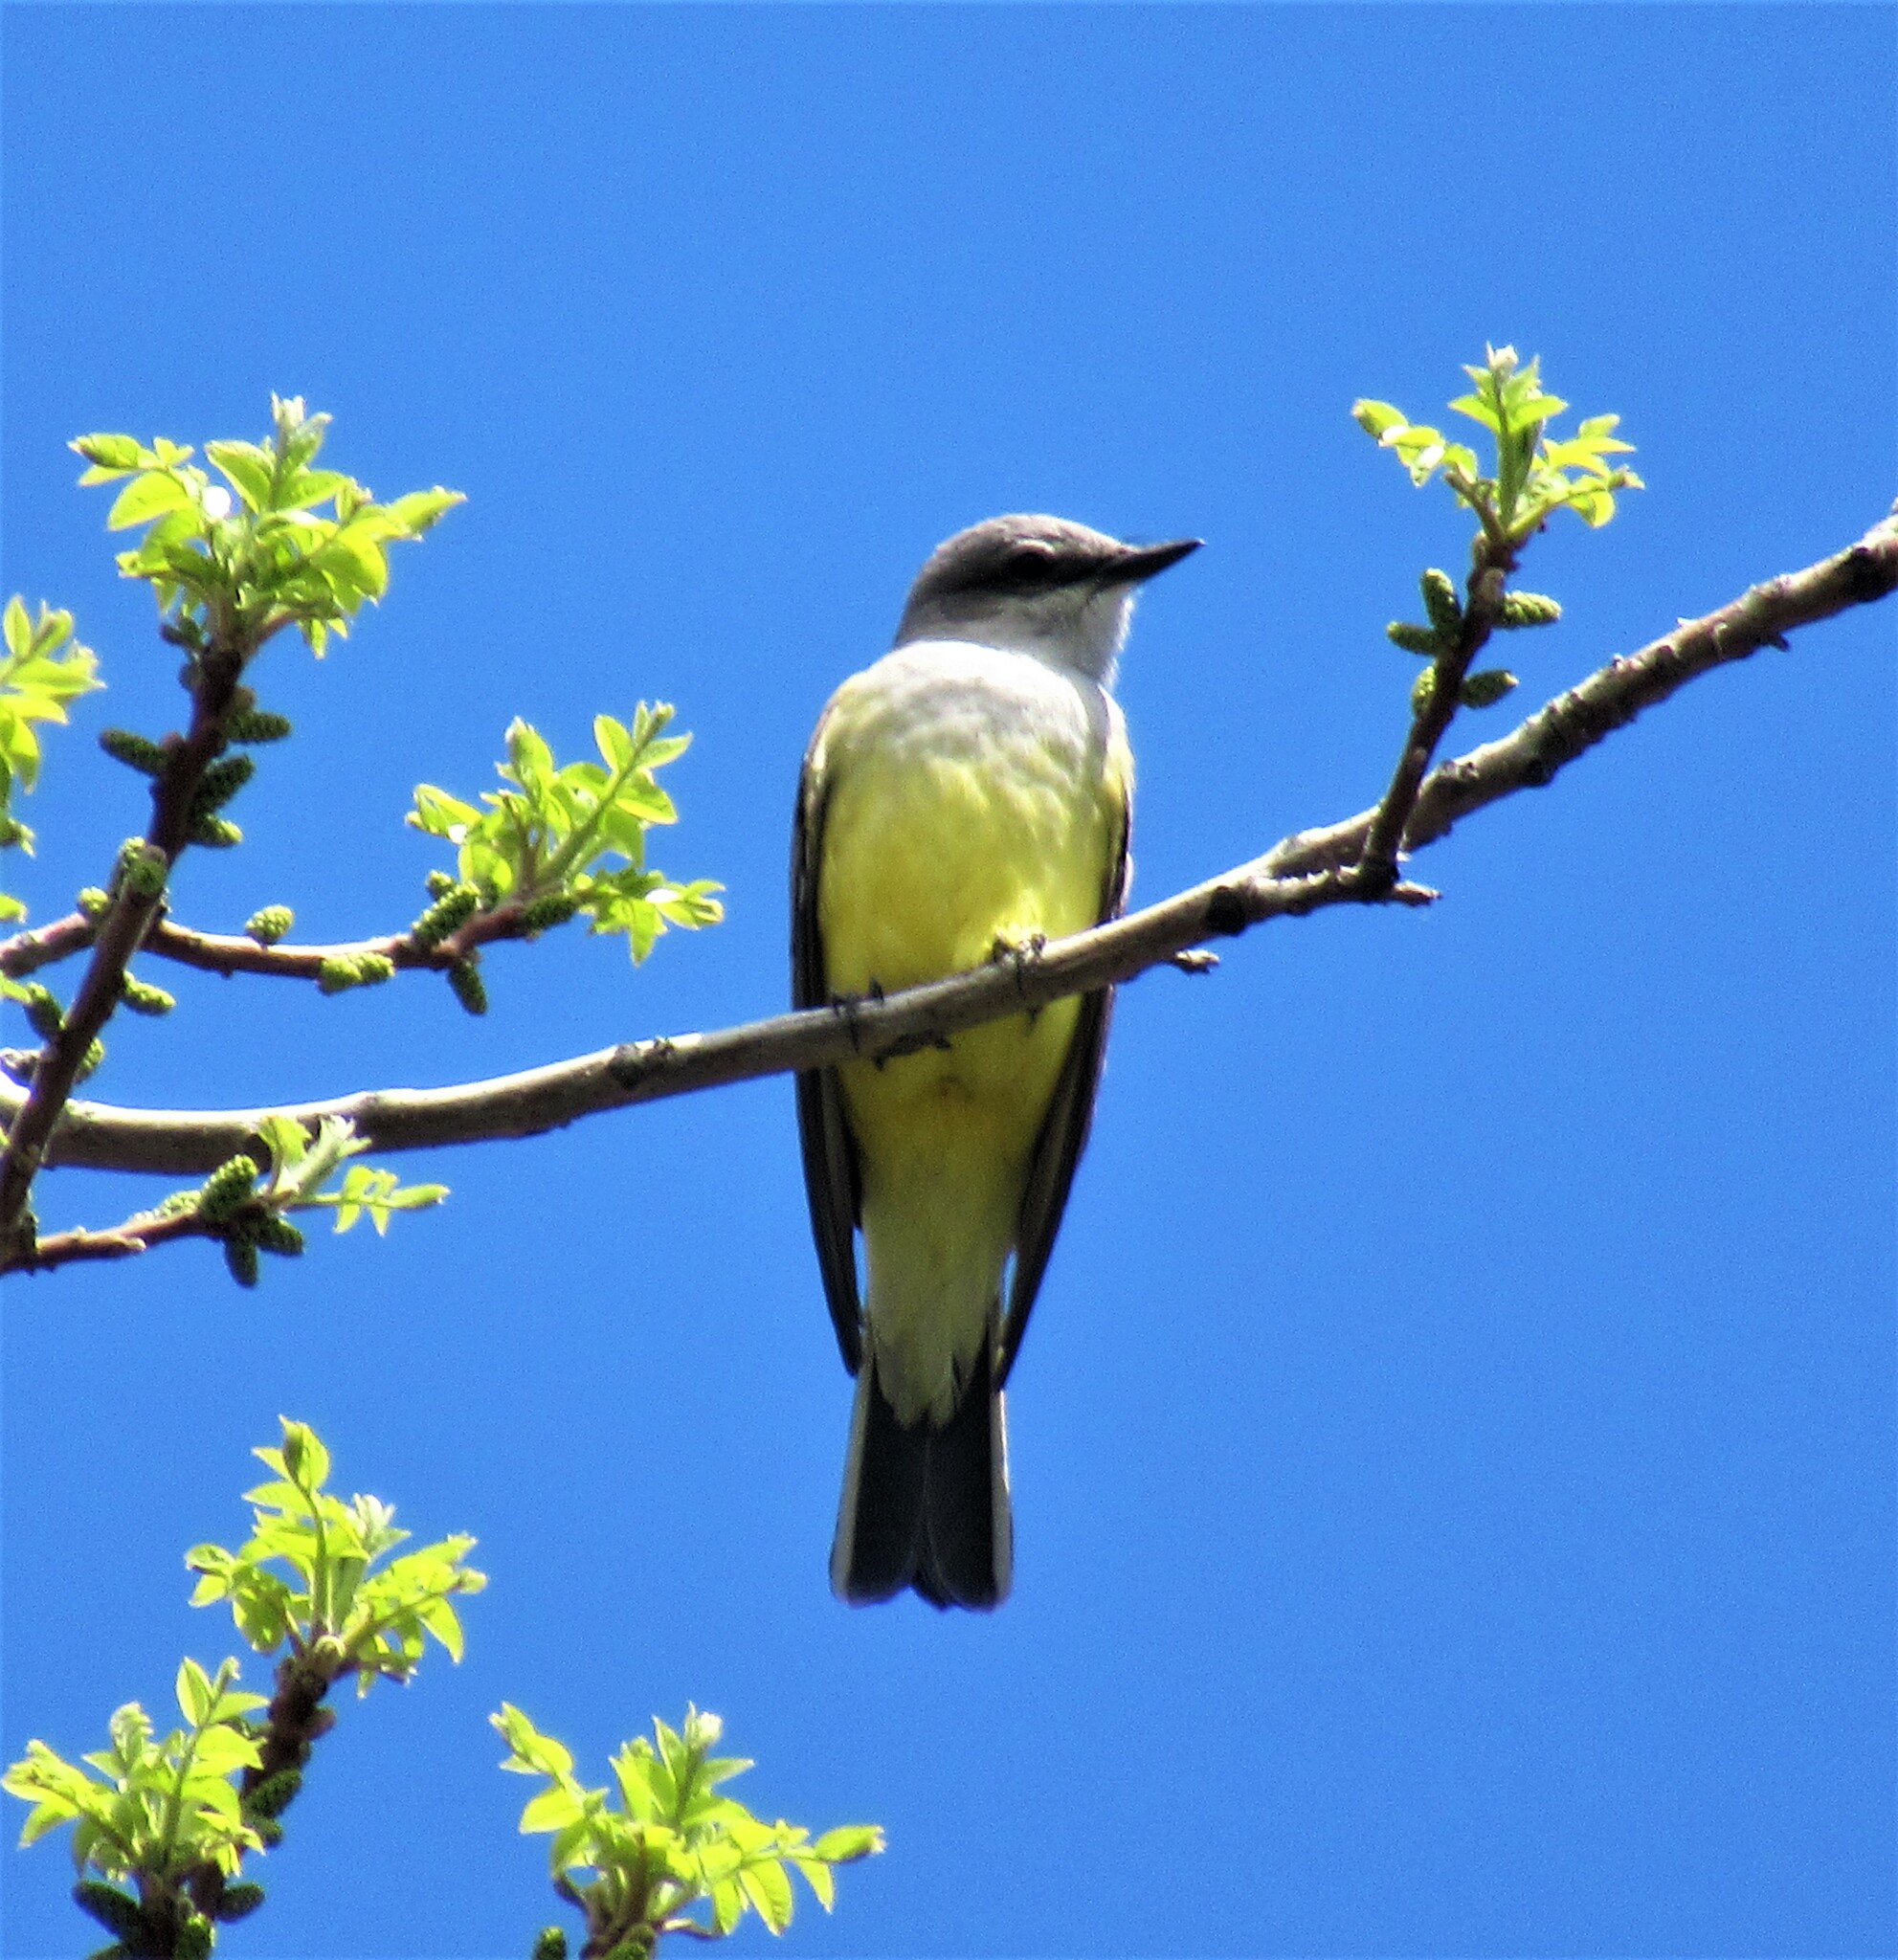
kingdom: Animalia
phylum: Chordata
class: Aves
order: Passeriformes
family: Tyrannidae
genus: Tyrannus
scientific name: Tyrannus verticalis
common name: Western kingbird
